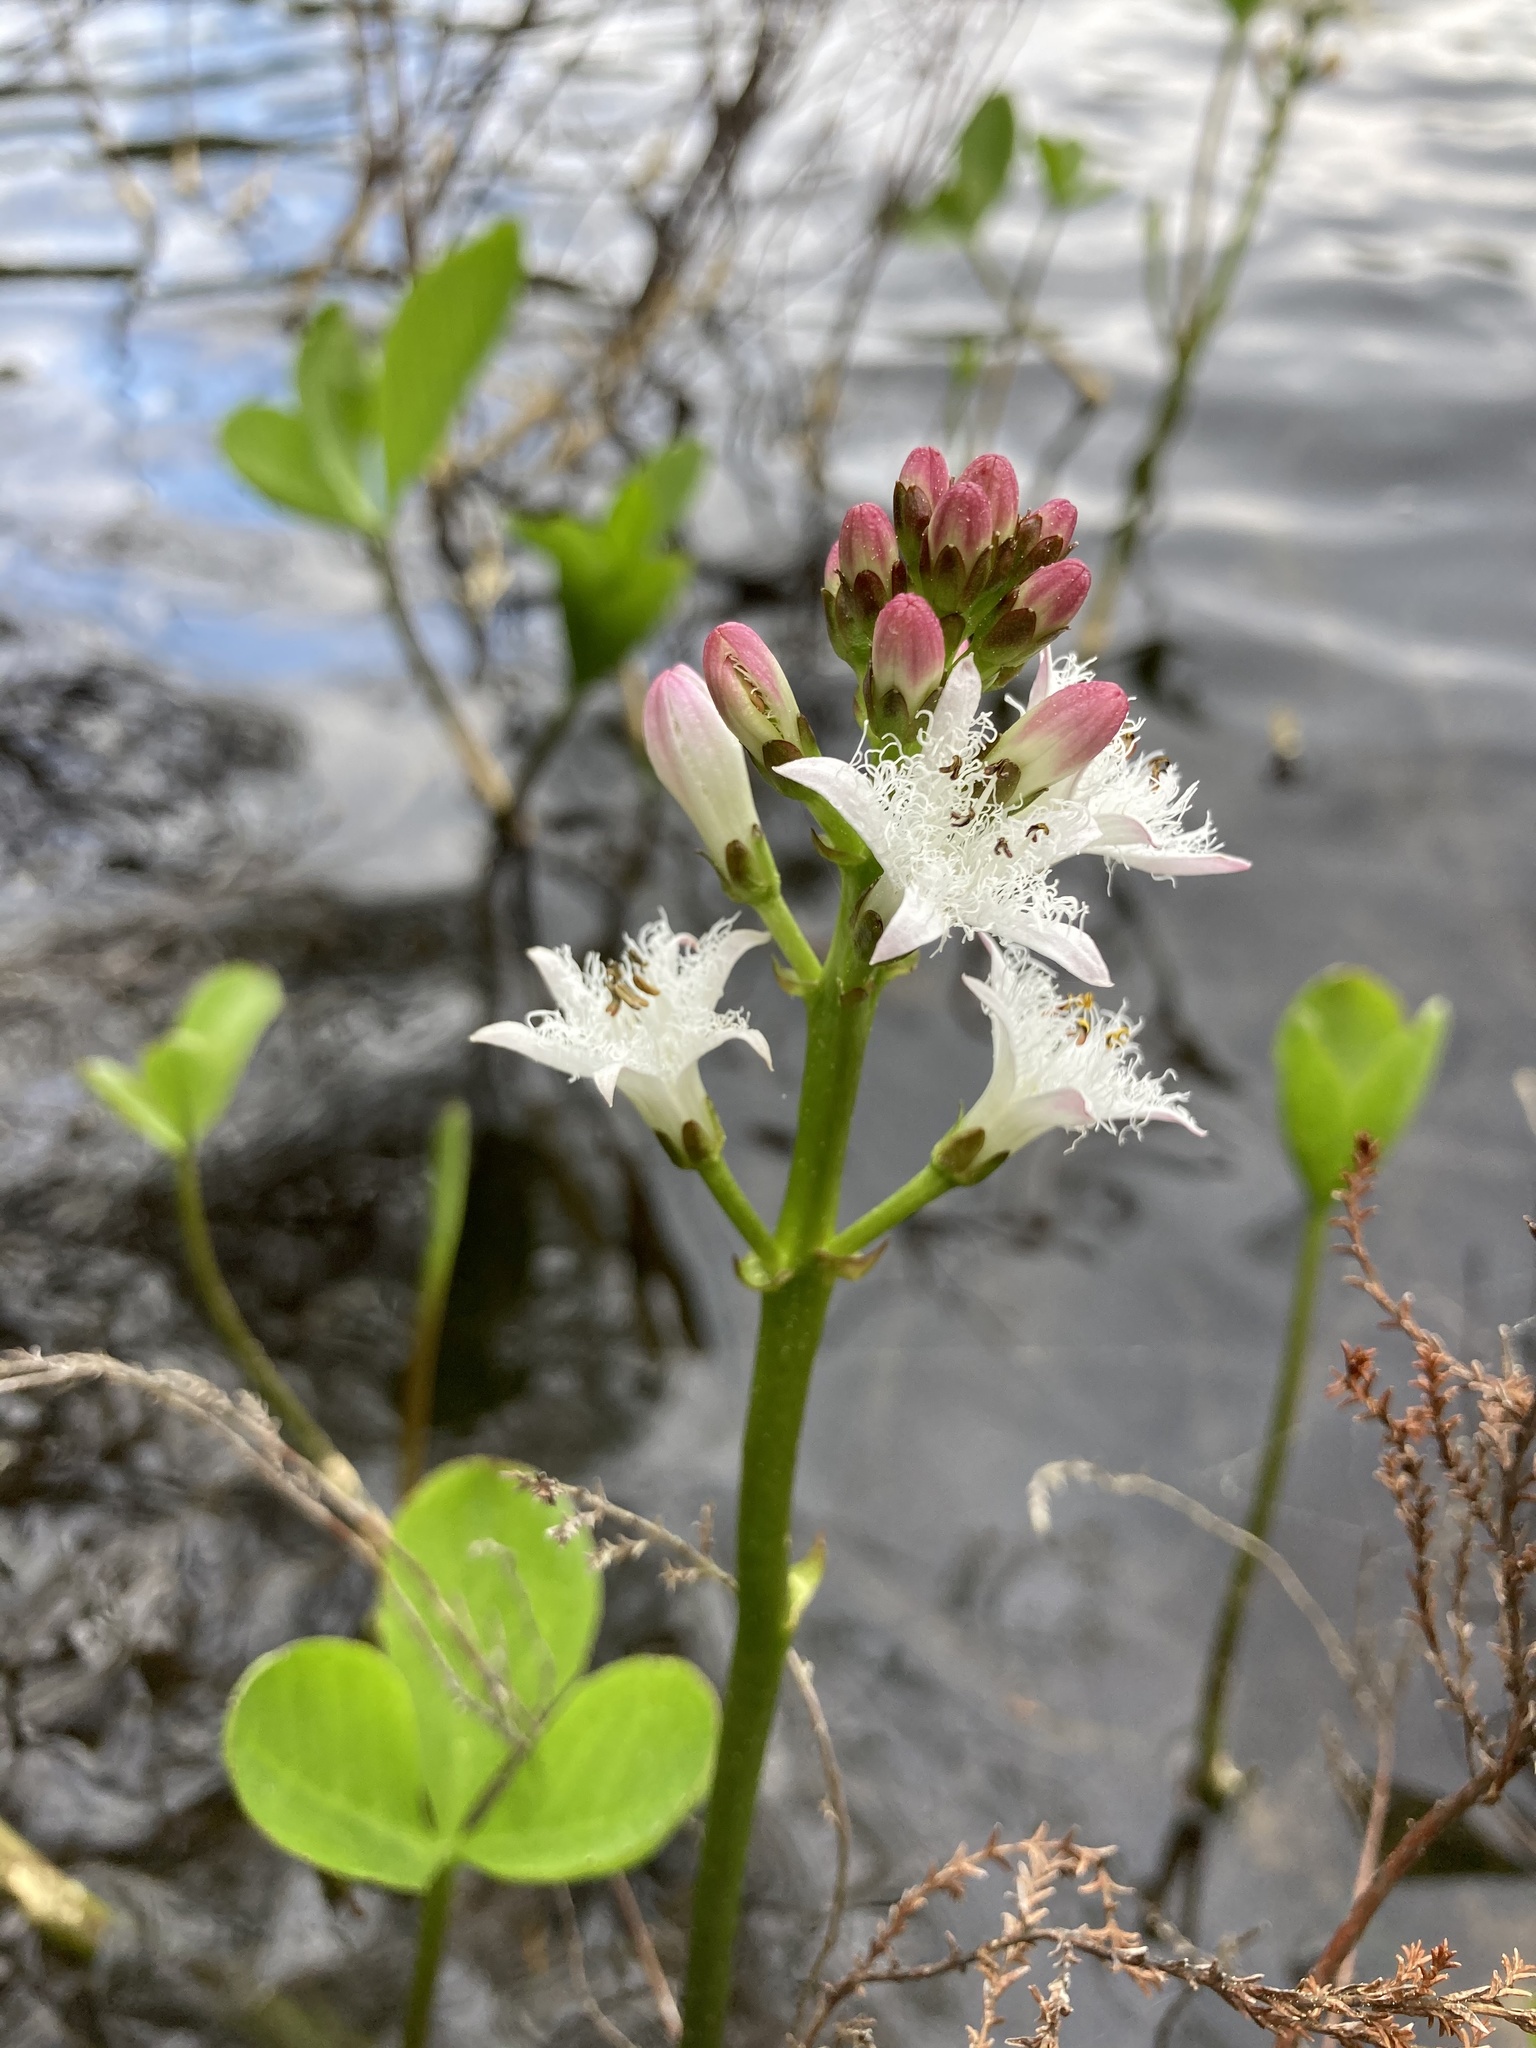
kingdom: Plantae
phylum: Tracheophyta
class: Magnoliopsida
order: Asterales
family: Menyanthaceae
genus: Menyanthes
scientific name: Menyanthes trifoliata
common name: Bogbean
